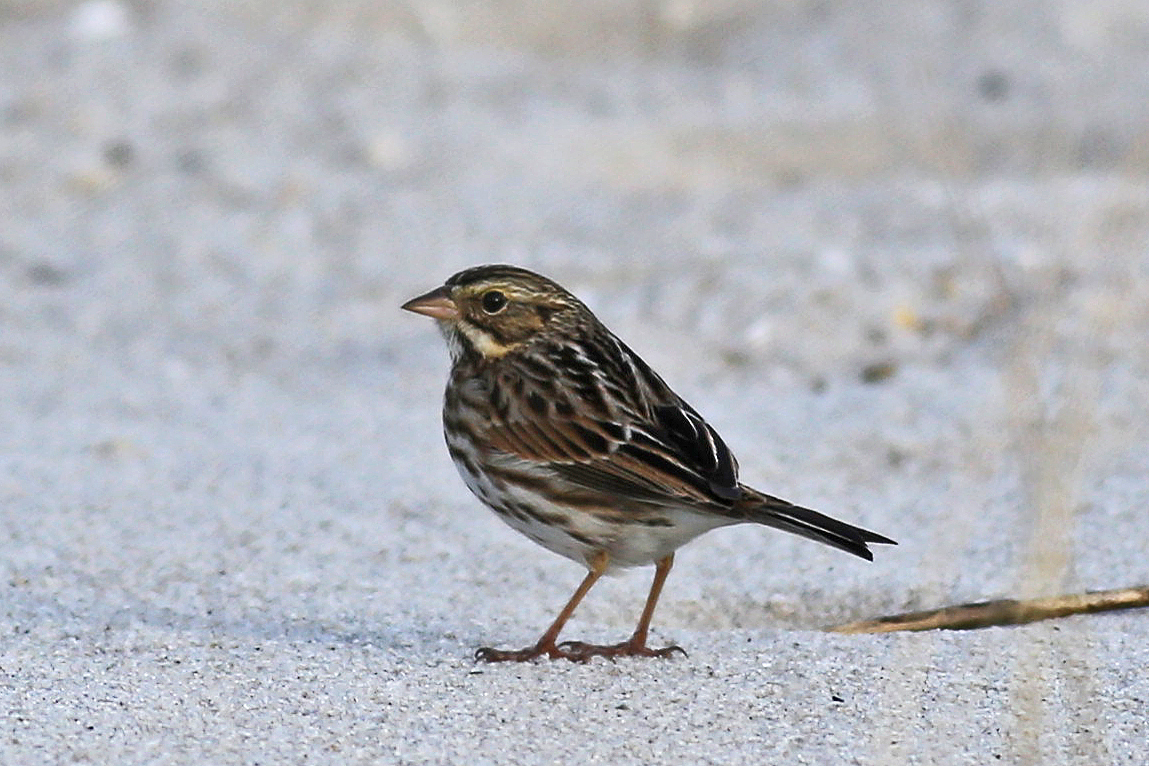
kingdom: Animalia
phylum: Chordata
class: Aves
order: Passeriformes
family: Passerellidae
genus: Passerculus
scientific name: Passerculus sandwichensis
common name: Savannah sparrow
